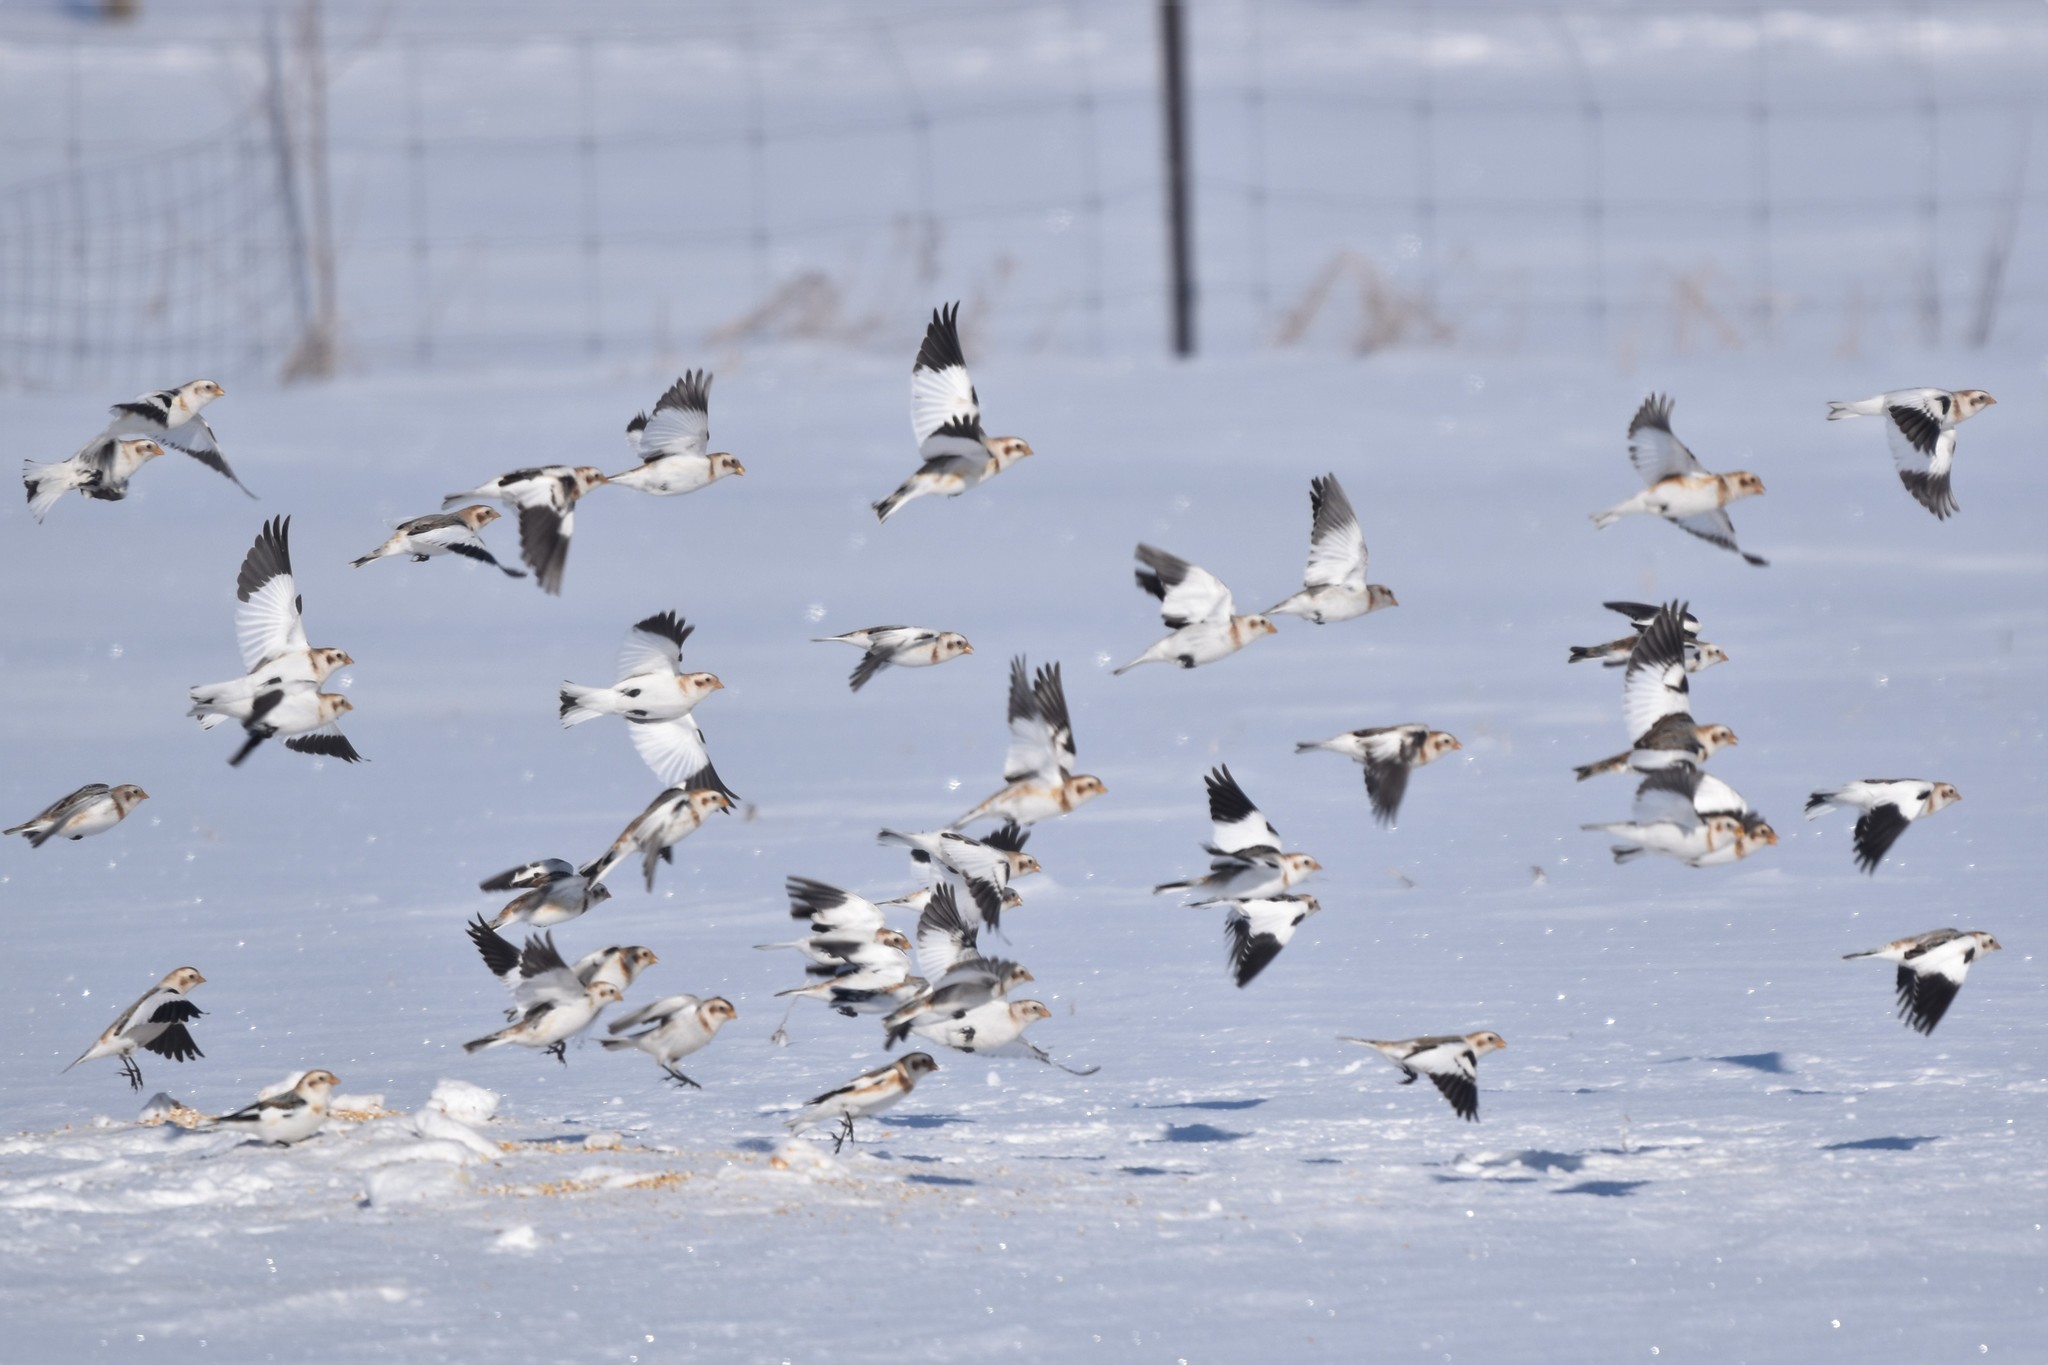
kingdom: Animalia
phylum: Chordata
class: Aves
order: Passeriformes
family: Calcariidae
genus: Plectrophenax
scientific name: Plectrophenax nivalis
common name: Snow bunting
